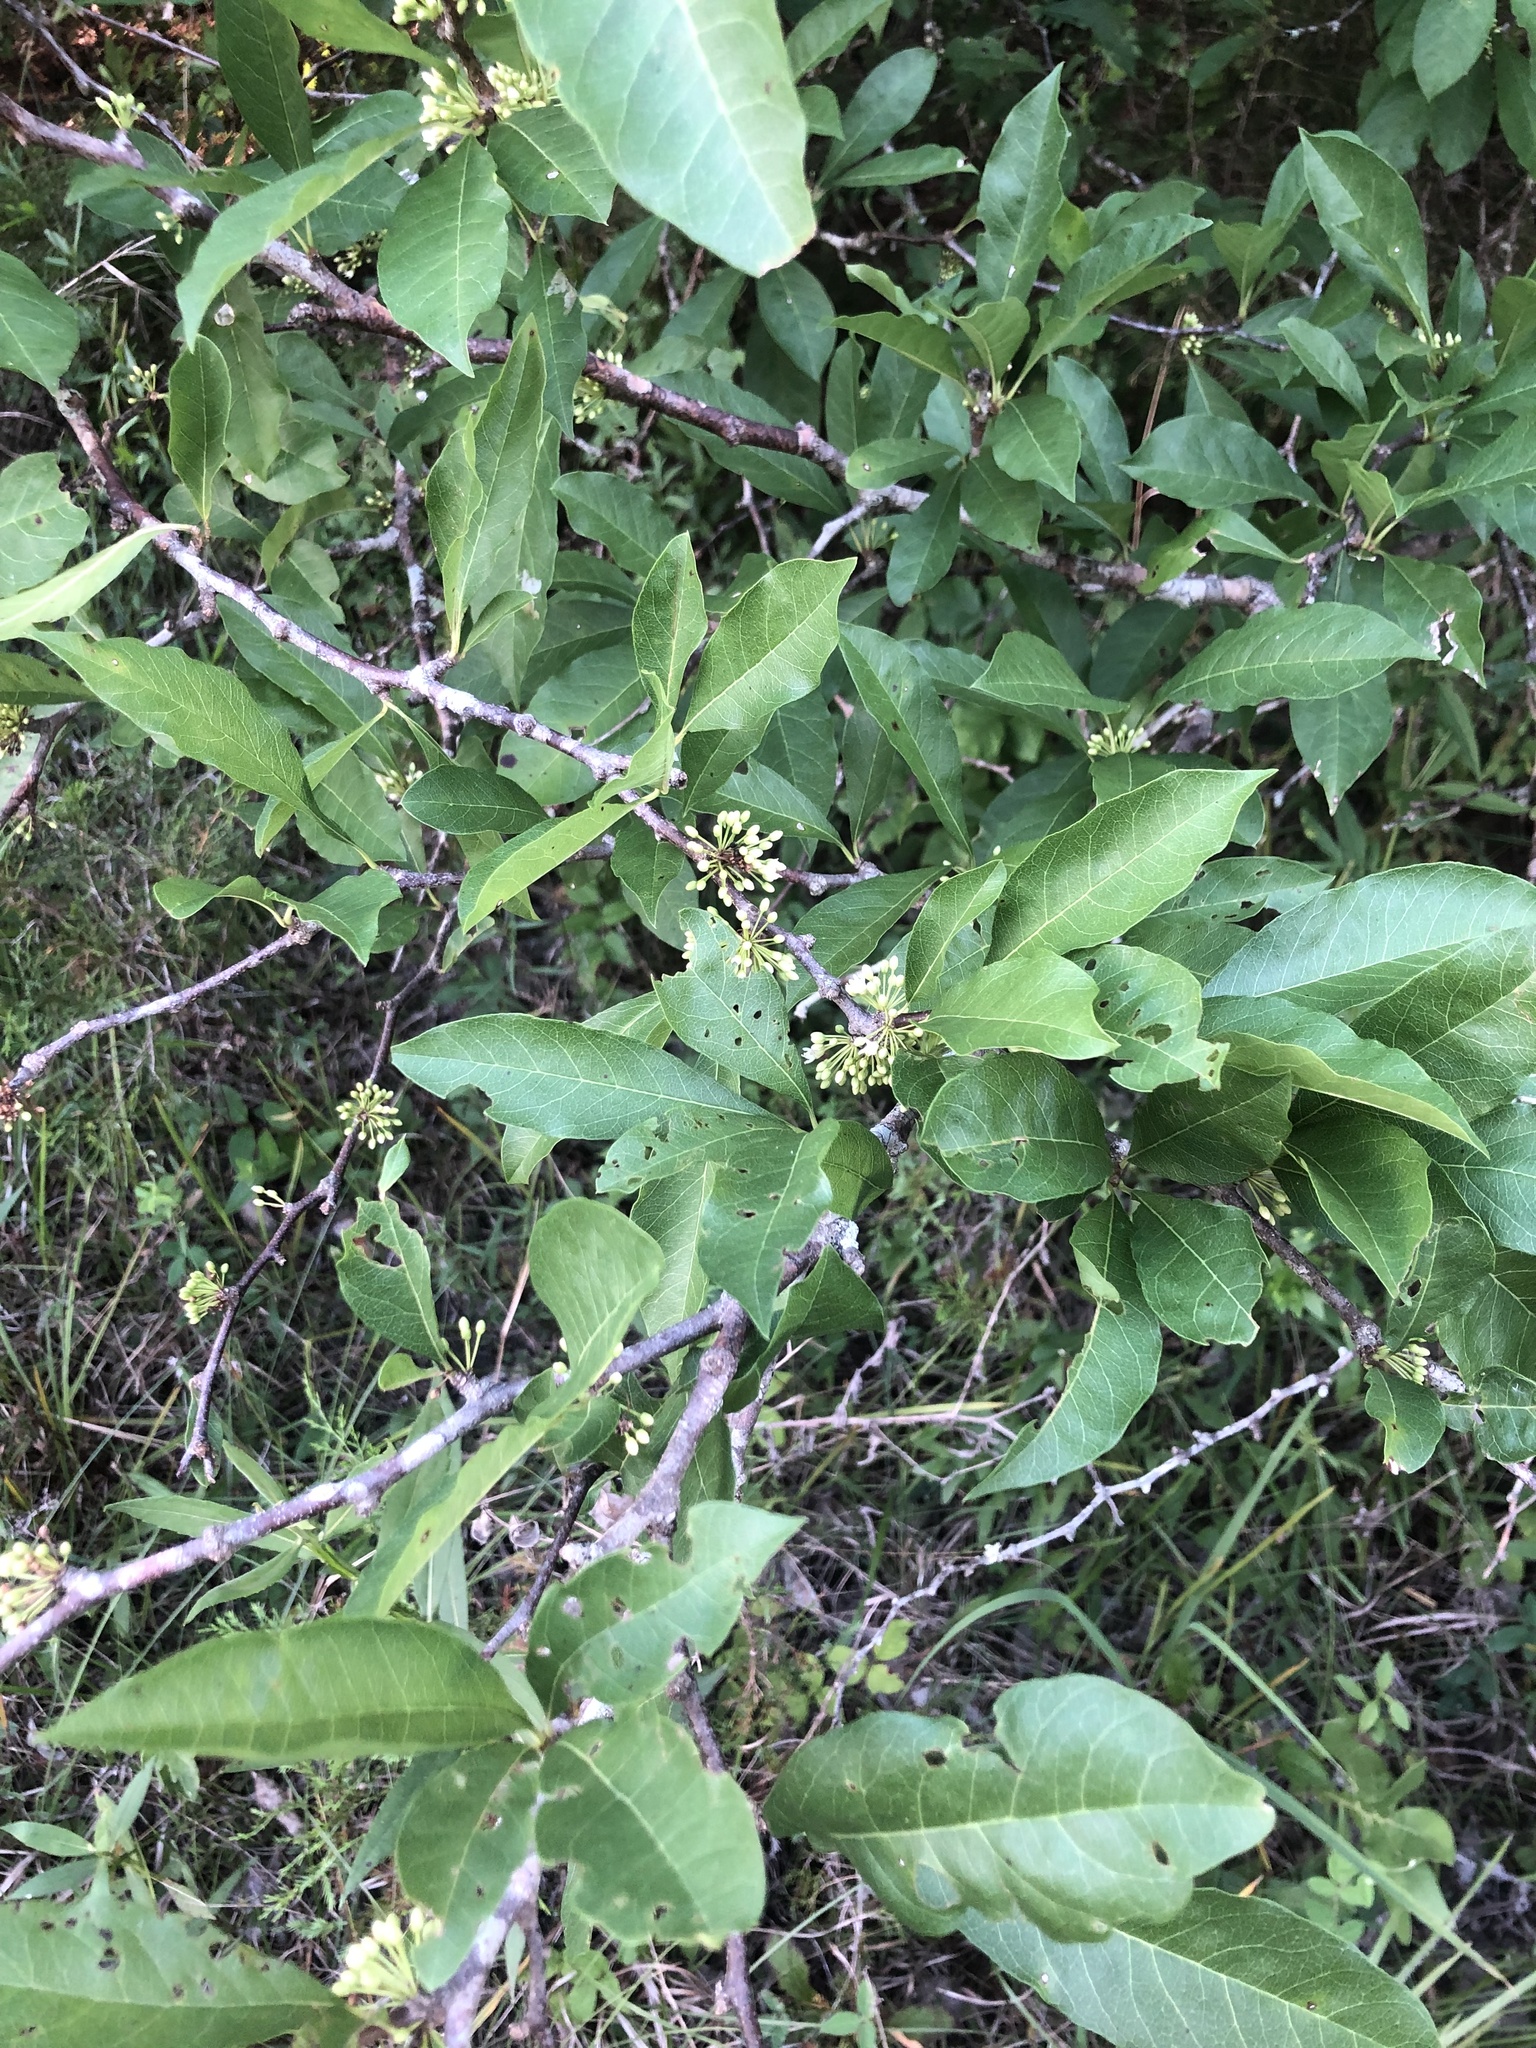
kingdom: Plantae
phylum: Tracheophyta
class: Magnoliopsida
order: Ericales
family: Sapotaceae
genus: Sideroxylon
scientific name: Sideroxylon lycioides
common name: Buckthorn bumelia
